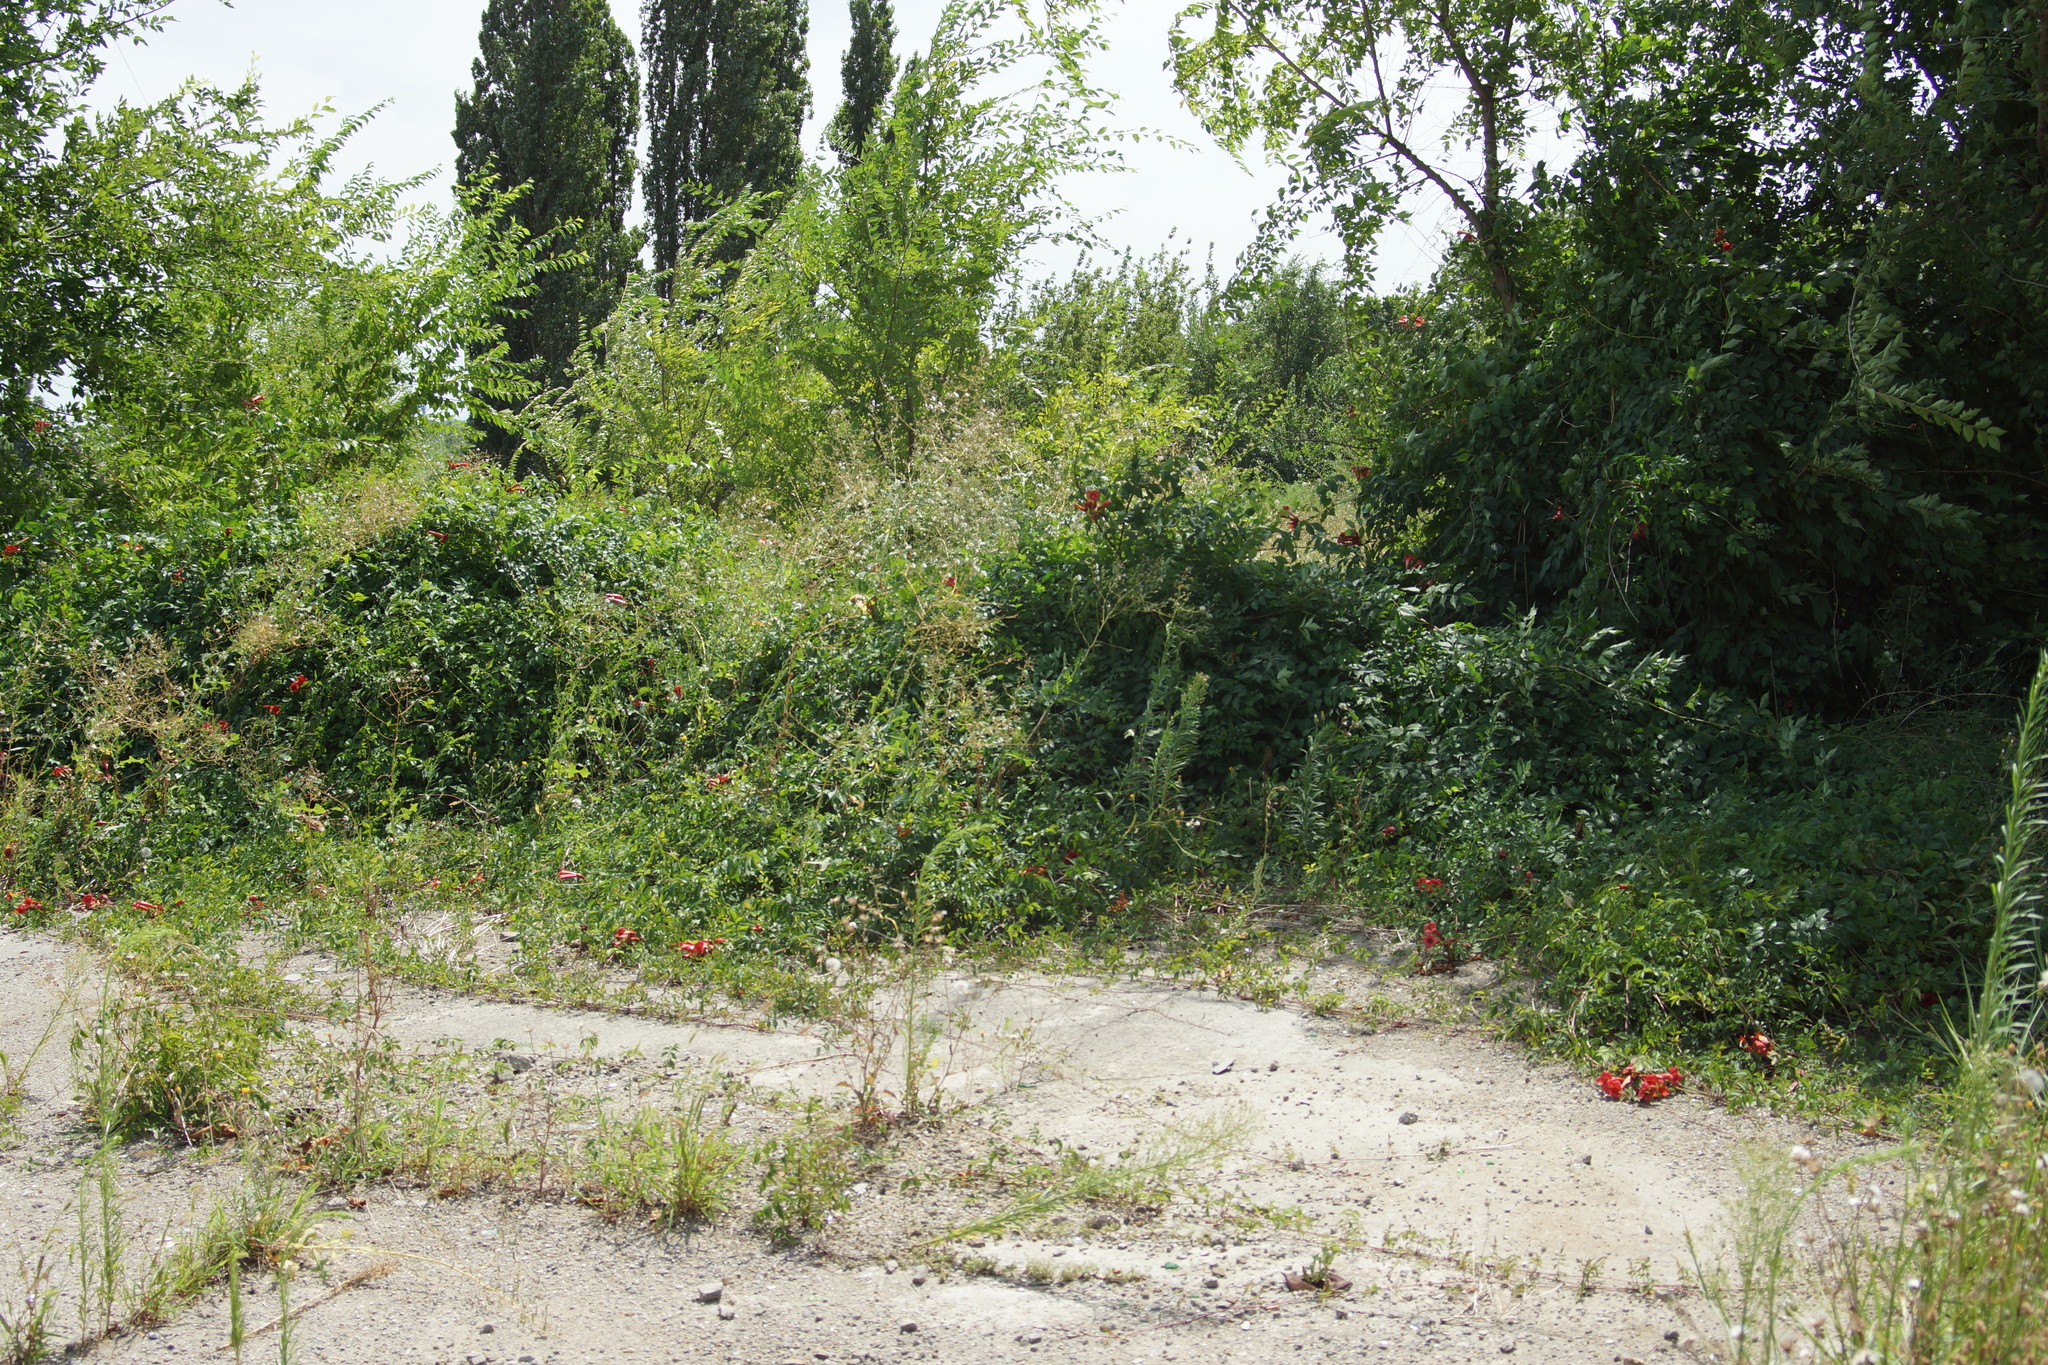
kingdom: Plantae
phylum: Tracheophyta
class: Magnoliopsida
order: Lamiales
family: Bignoniaceae
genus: Campsis
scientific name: Campsis radicans
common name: Trumpet-creeper
